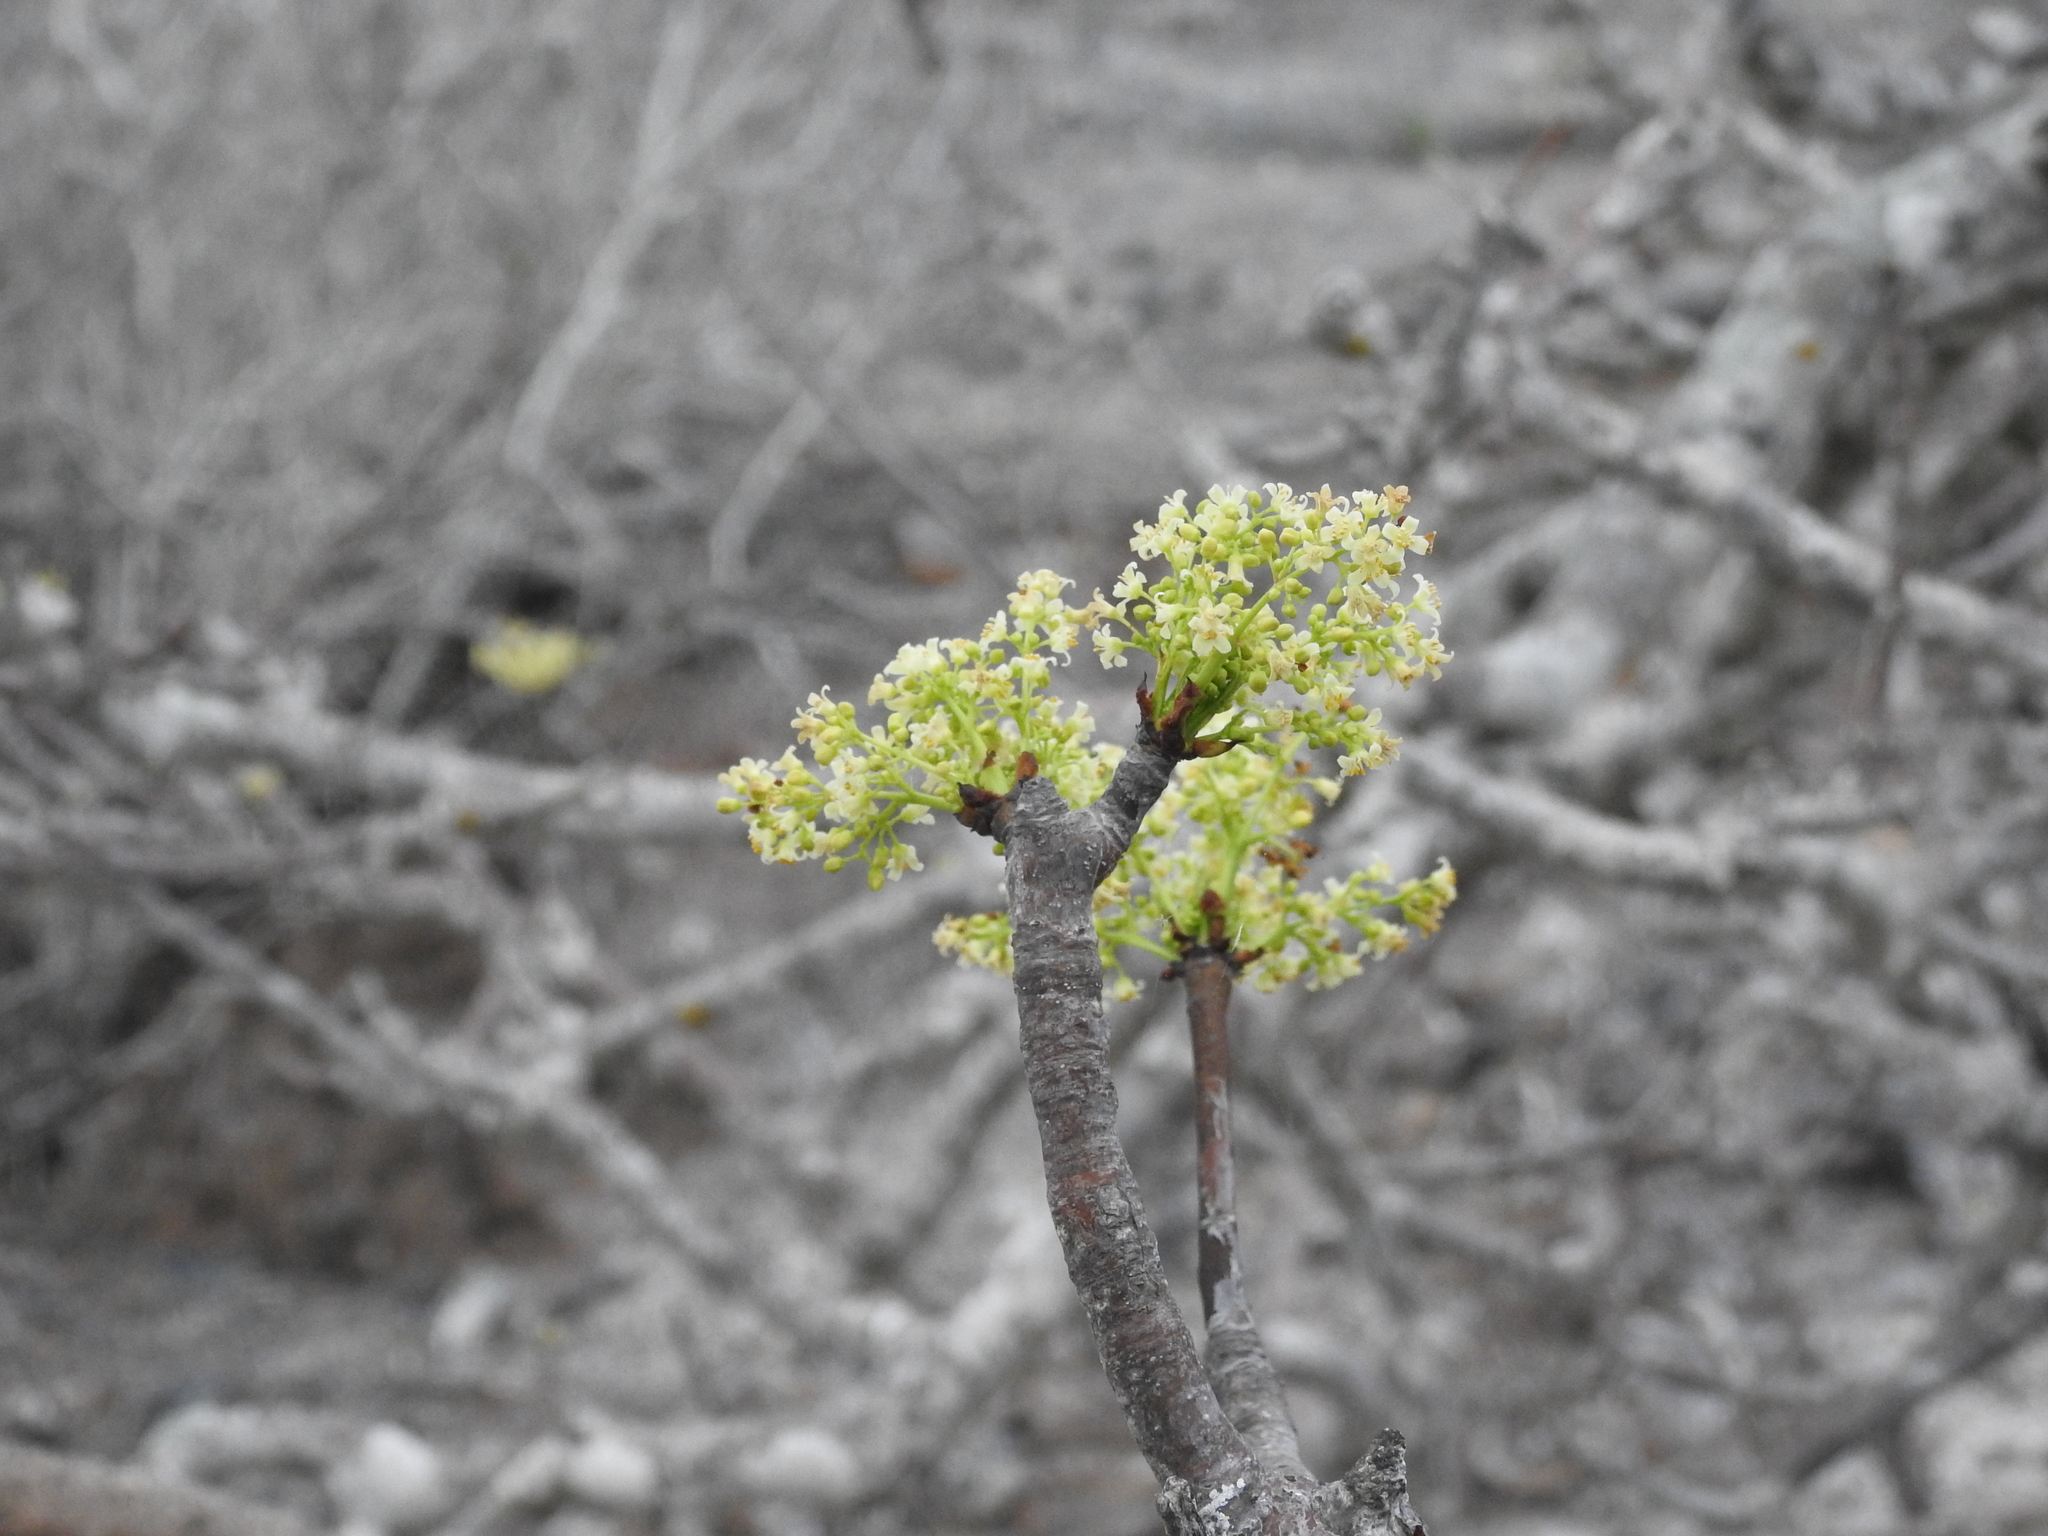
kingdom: Plantae
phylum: Tracheophyta
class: Magnoliopsida
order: Sapindales
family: Burseraceae
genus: Bursera
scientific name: Bursera graveolens
